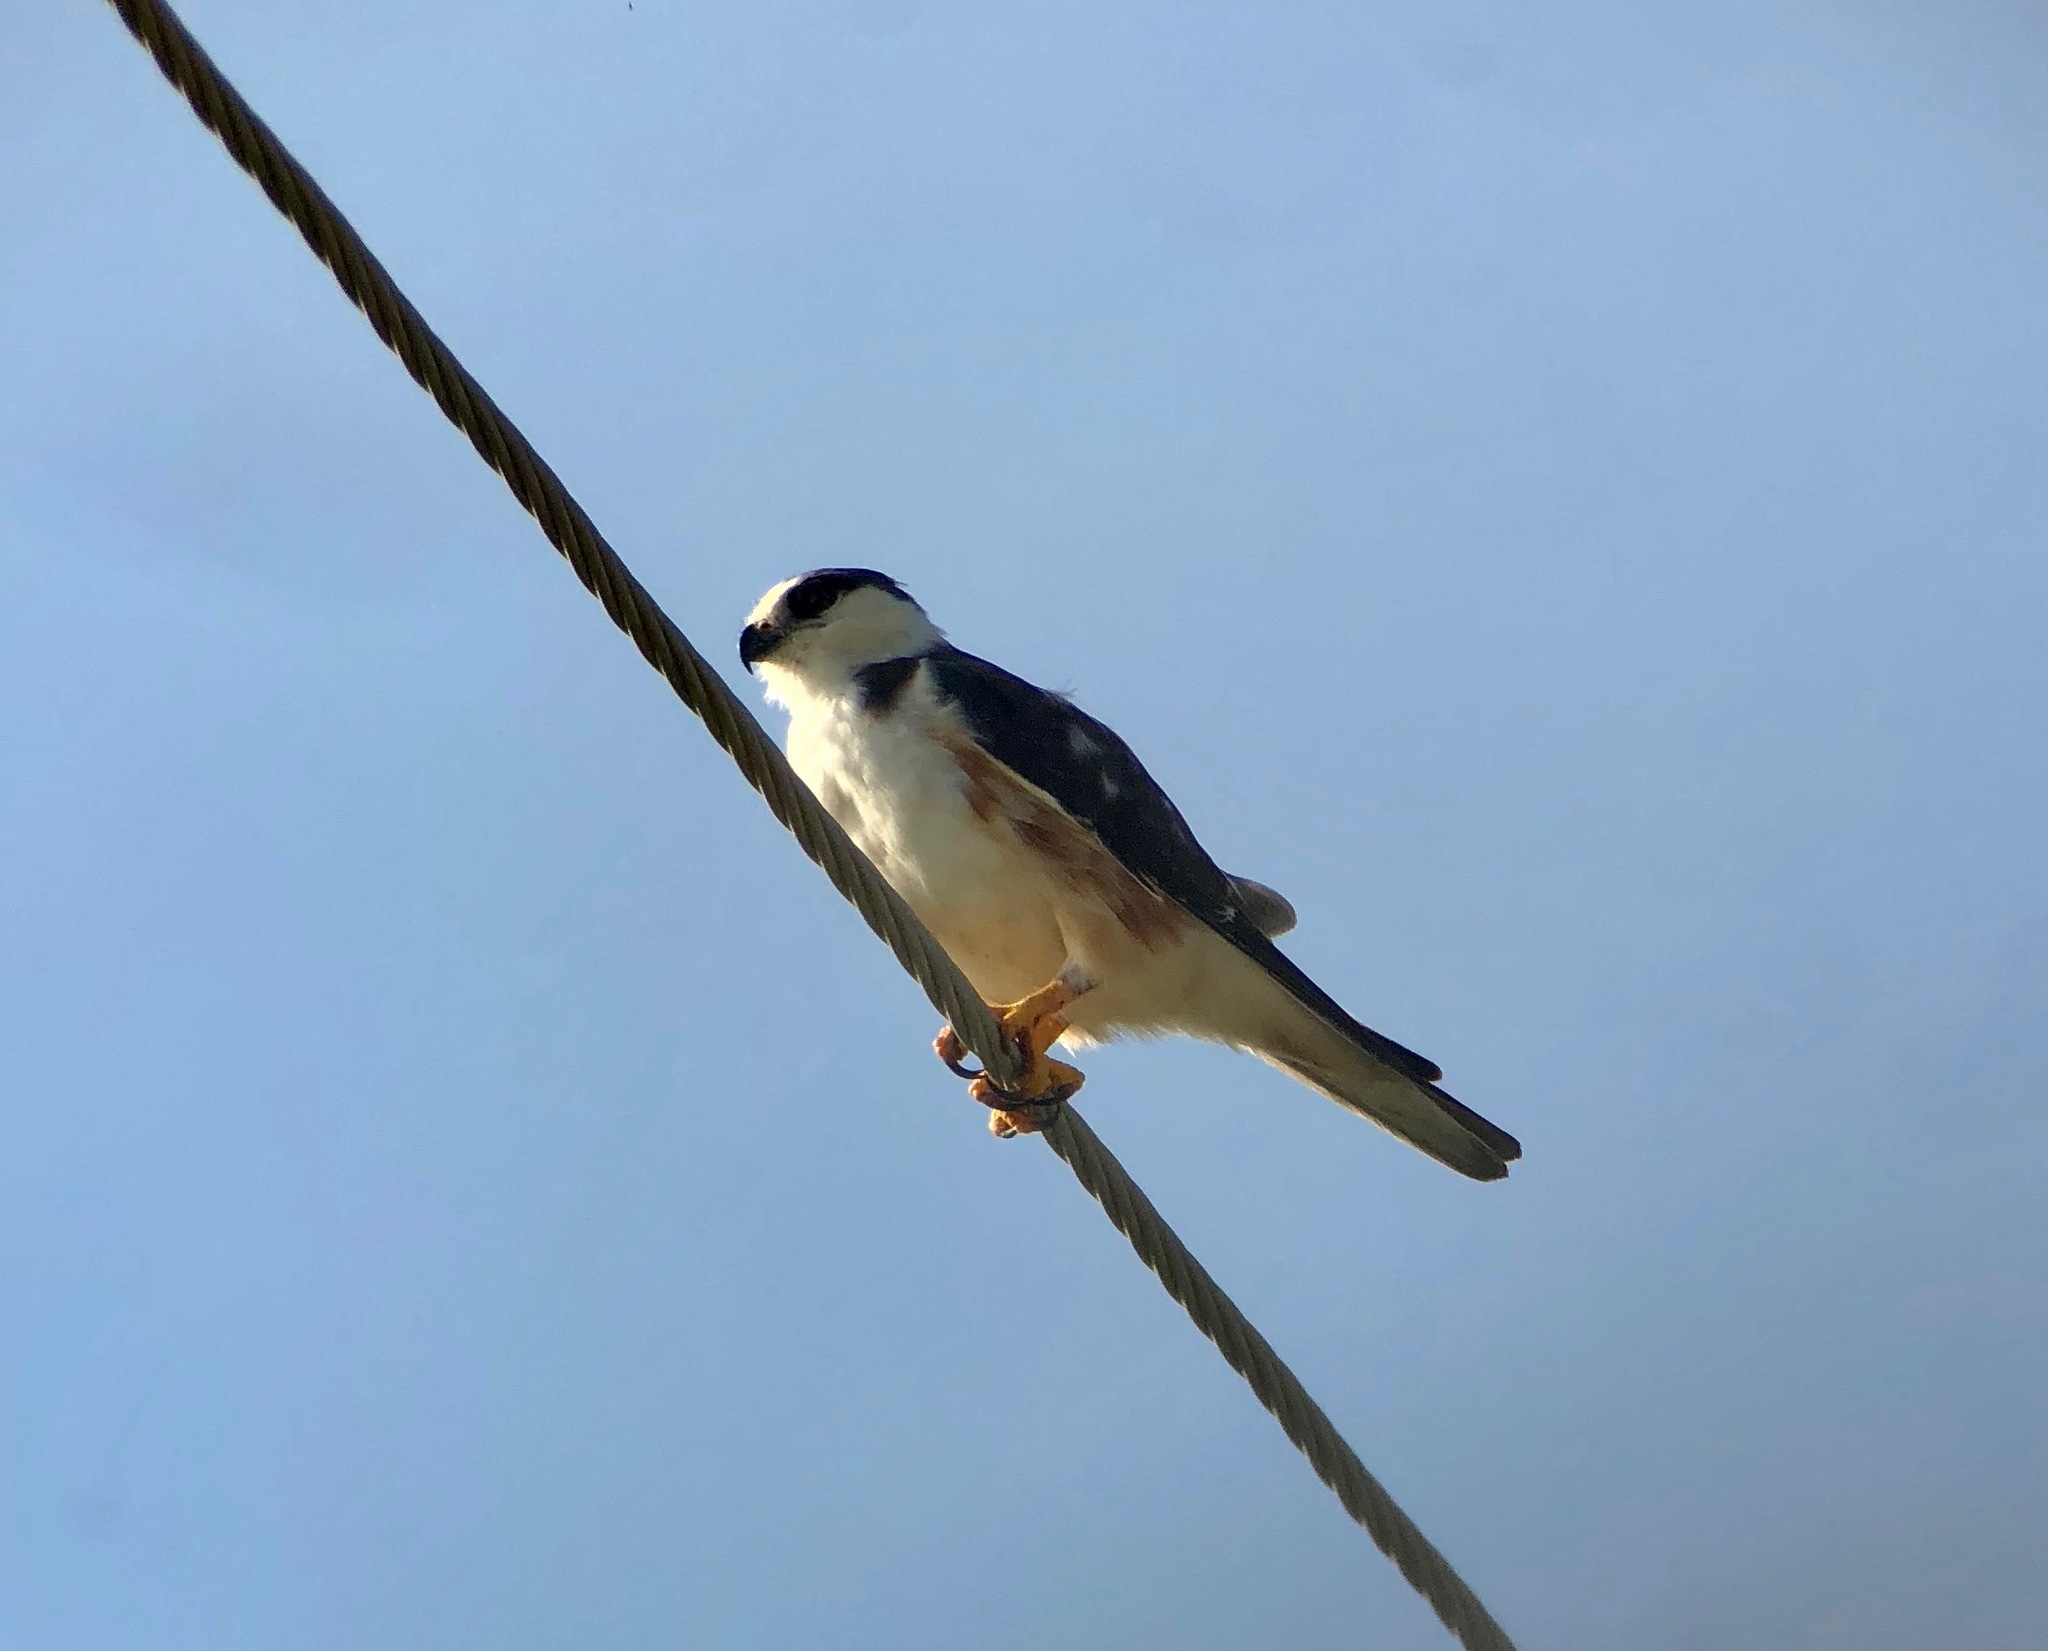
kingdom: Animalia
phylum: Chordata
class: Aves
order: Accipitriformes
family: Accipitridae
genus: Gampsonyx
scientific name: Gampsonyx swainsonii
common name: Pearl kite
